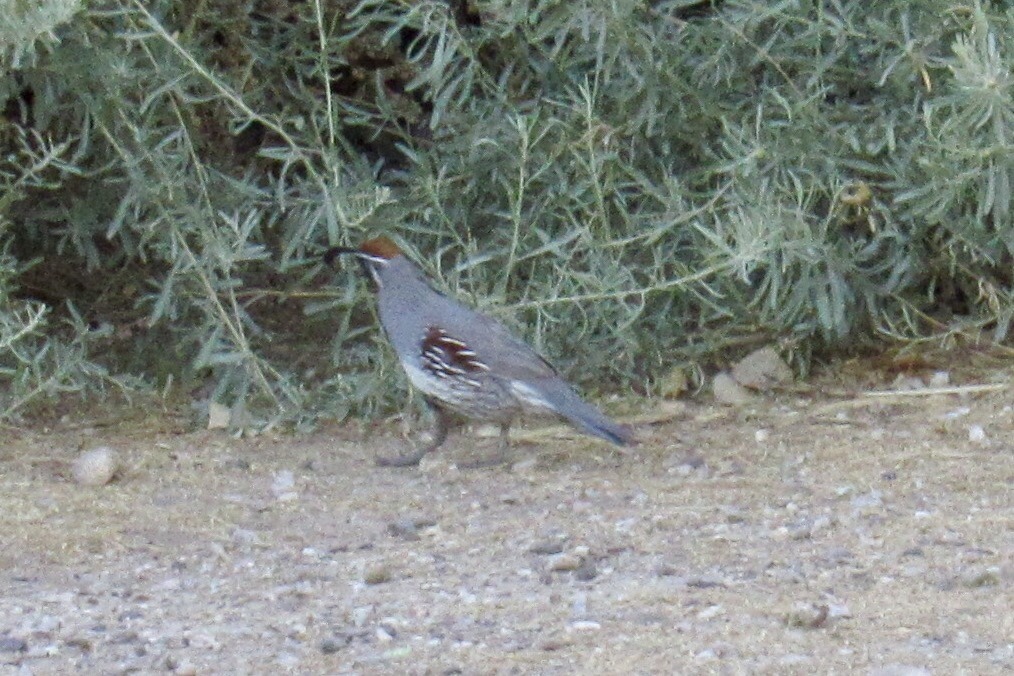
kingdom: Animalia
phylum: Chordata
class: Aves
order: Galliformes
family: Odontophoridae
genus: Callipepla
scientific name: Callipepla gambelii
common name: Gambel's quail
